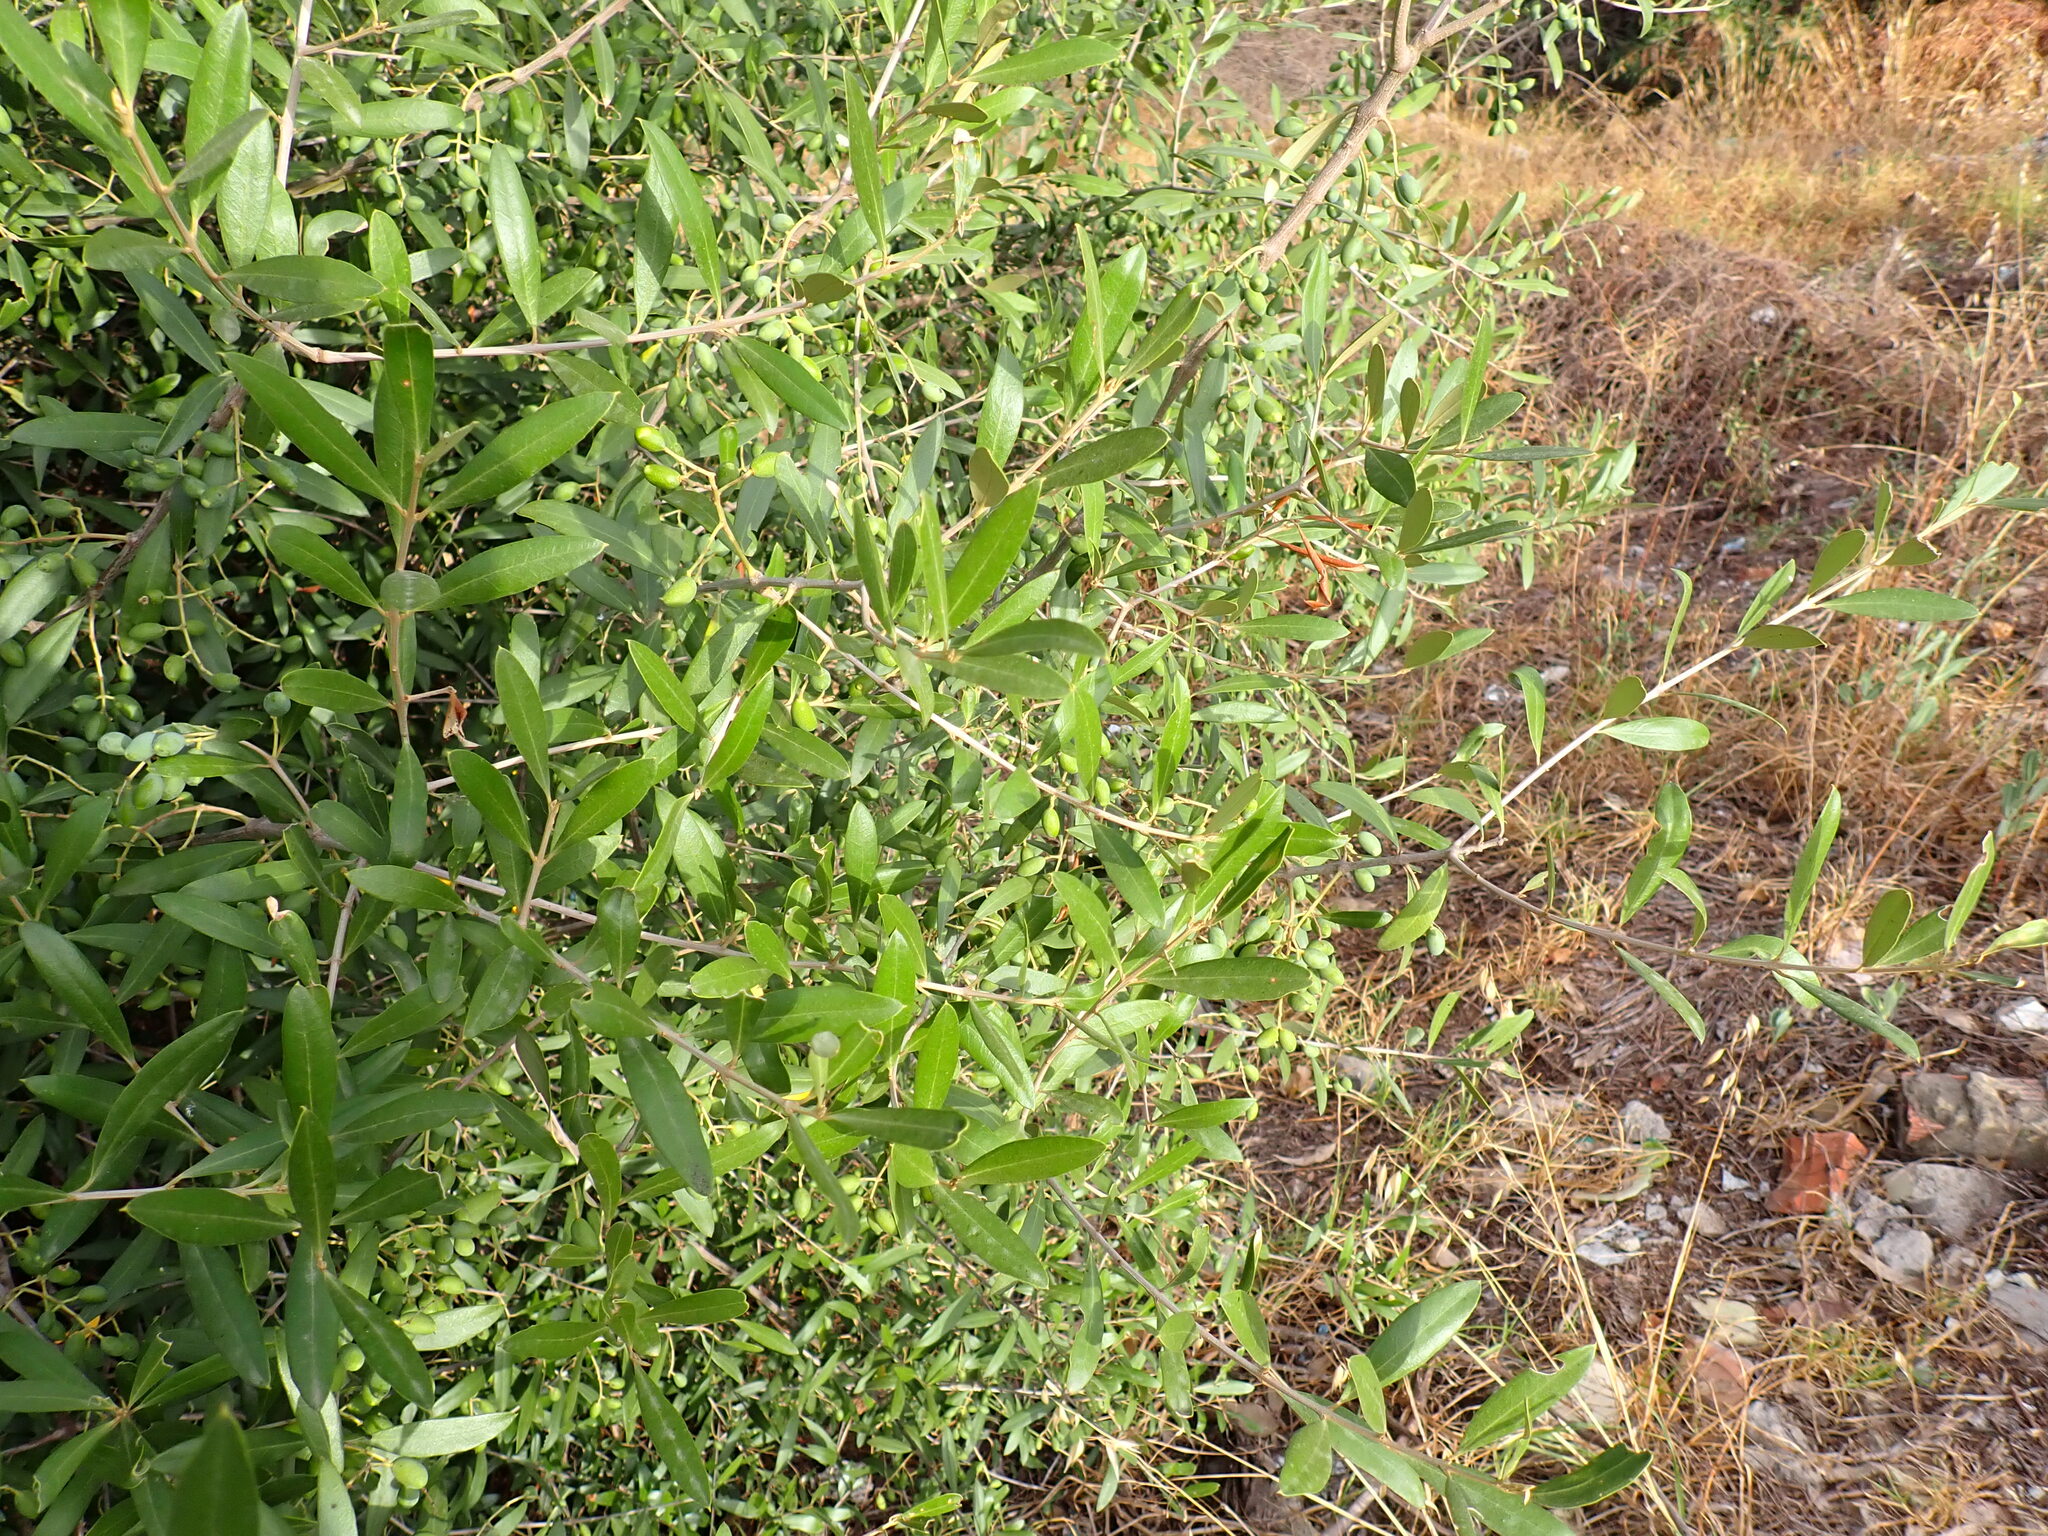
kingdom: Plantae
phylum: Tracheophyta
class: Magnoliopsida
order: Lamiales
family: Oleaceae
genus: Olea
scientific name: Olea europaea
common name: Olive
